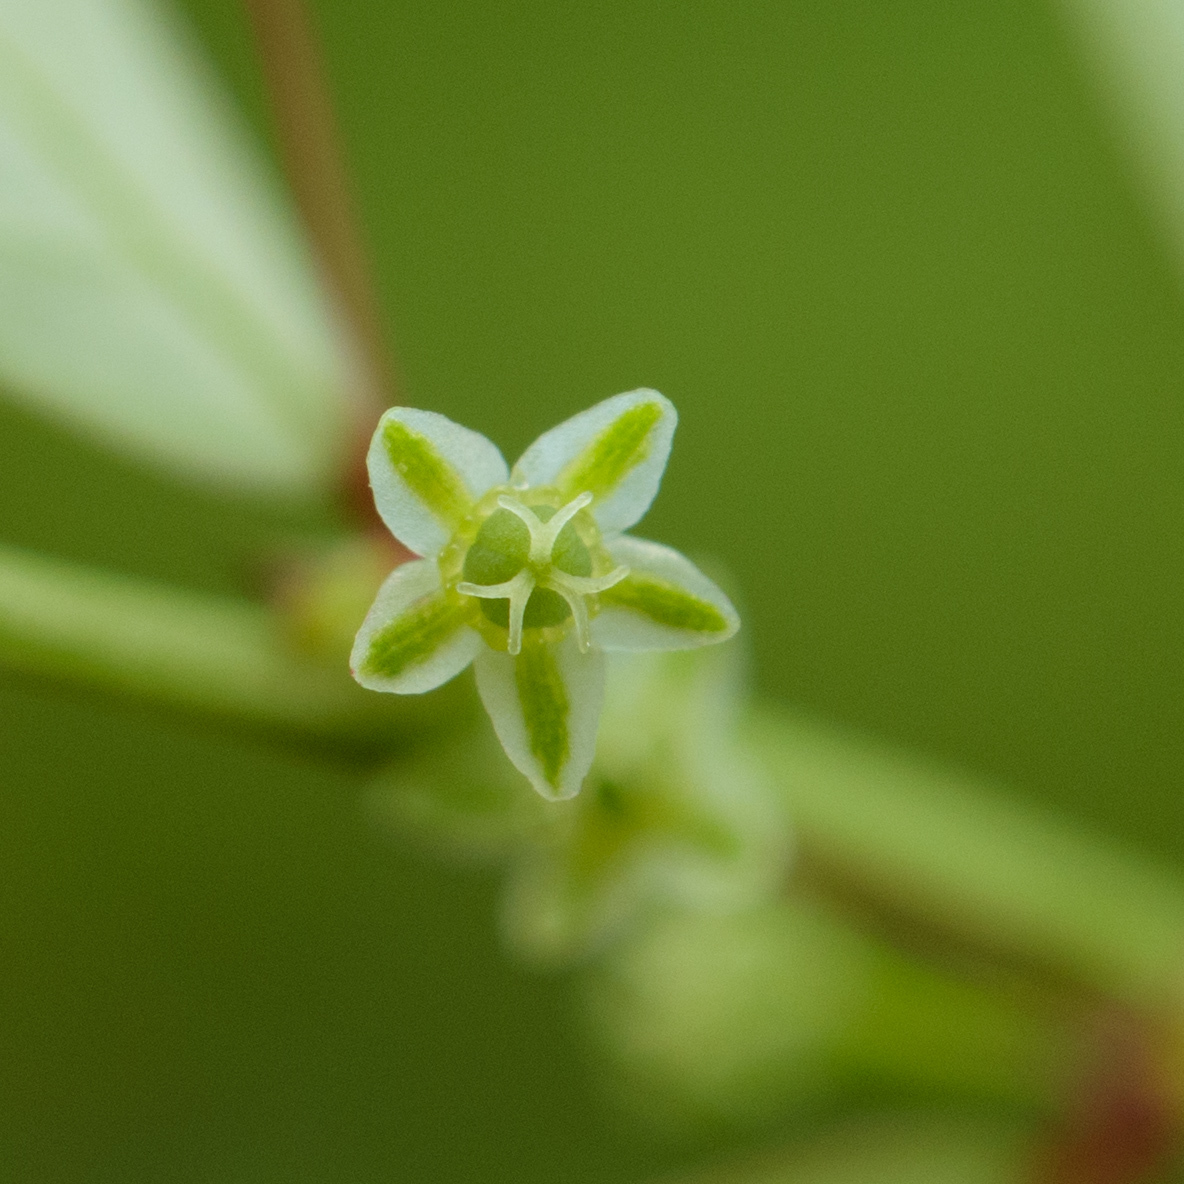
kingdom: Plantae
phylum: Tracheophyta
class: Magnoliopsida
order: Malpighiales
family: Phyllanthaceae
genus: Phyllanthus
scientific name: Phyllanthus tenellus
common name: Mascarene island leaf-flower
